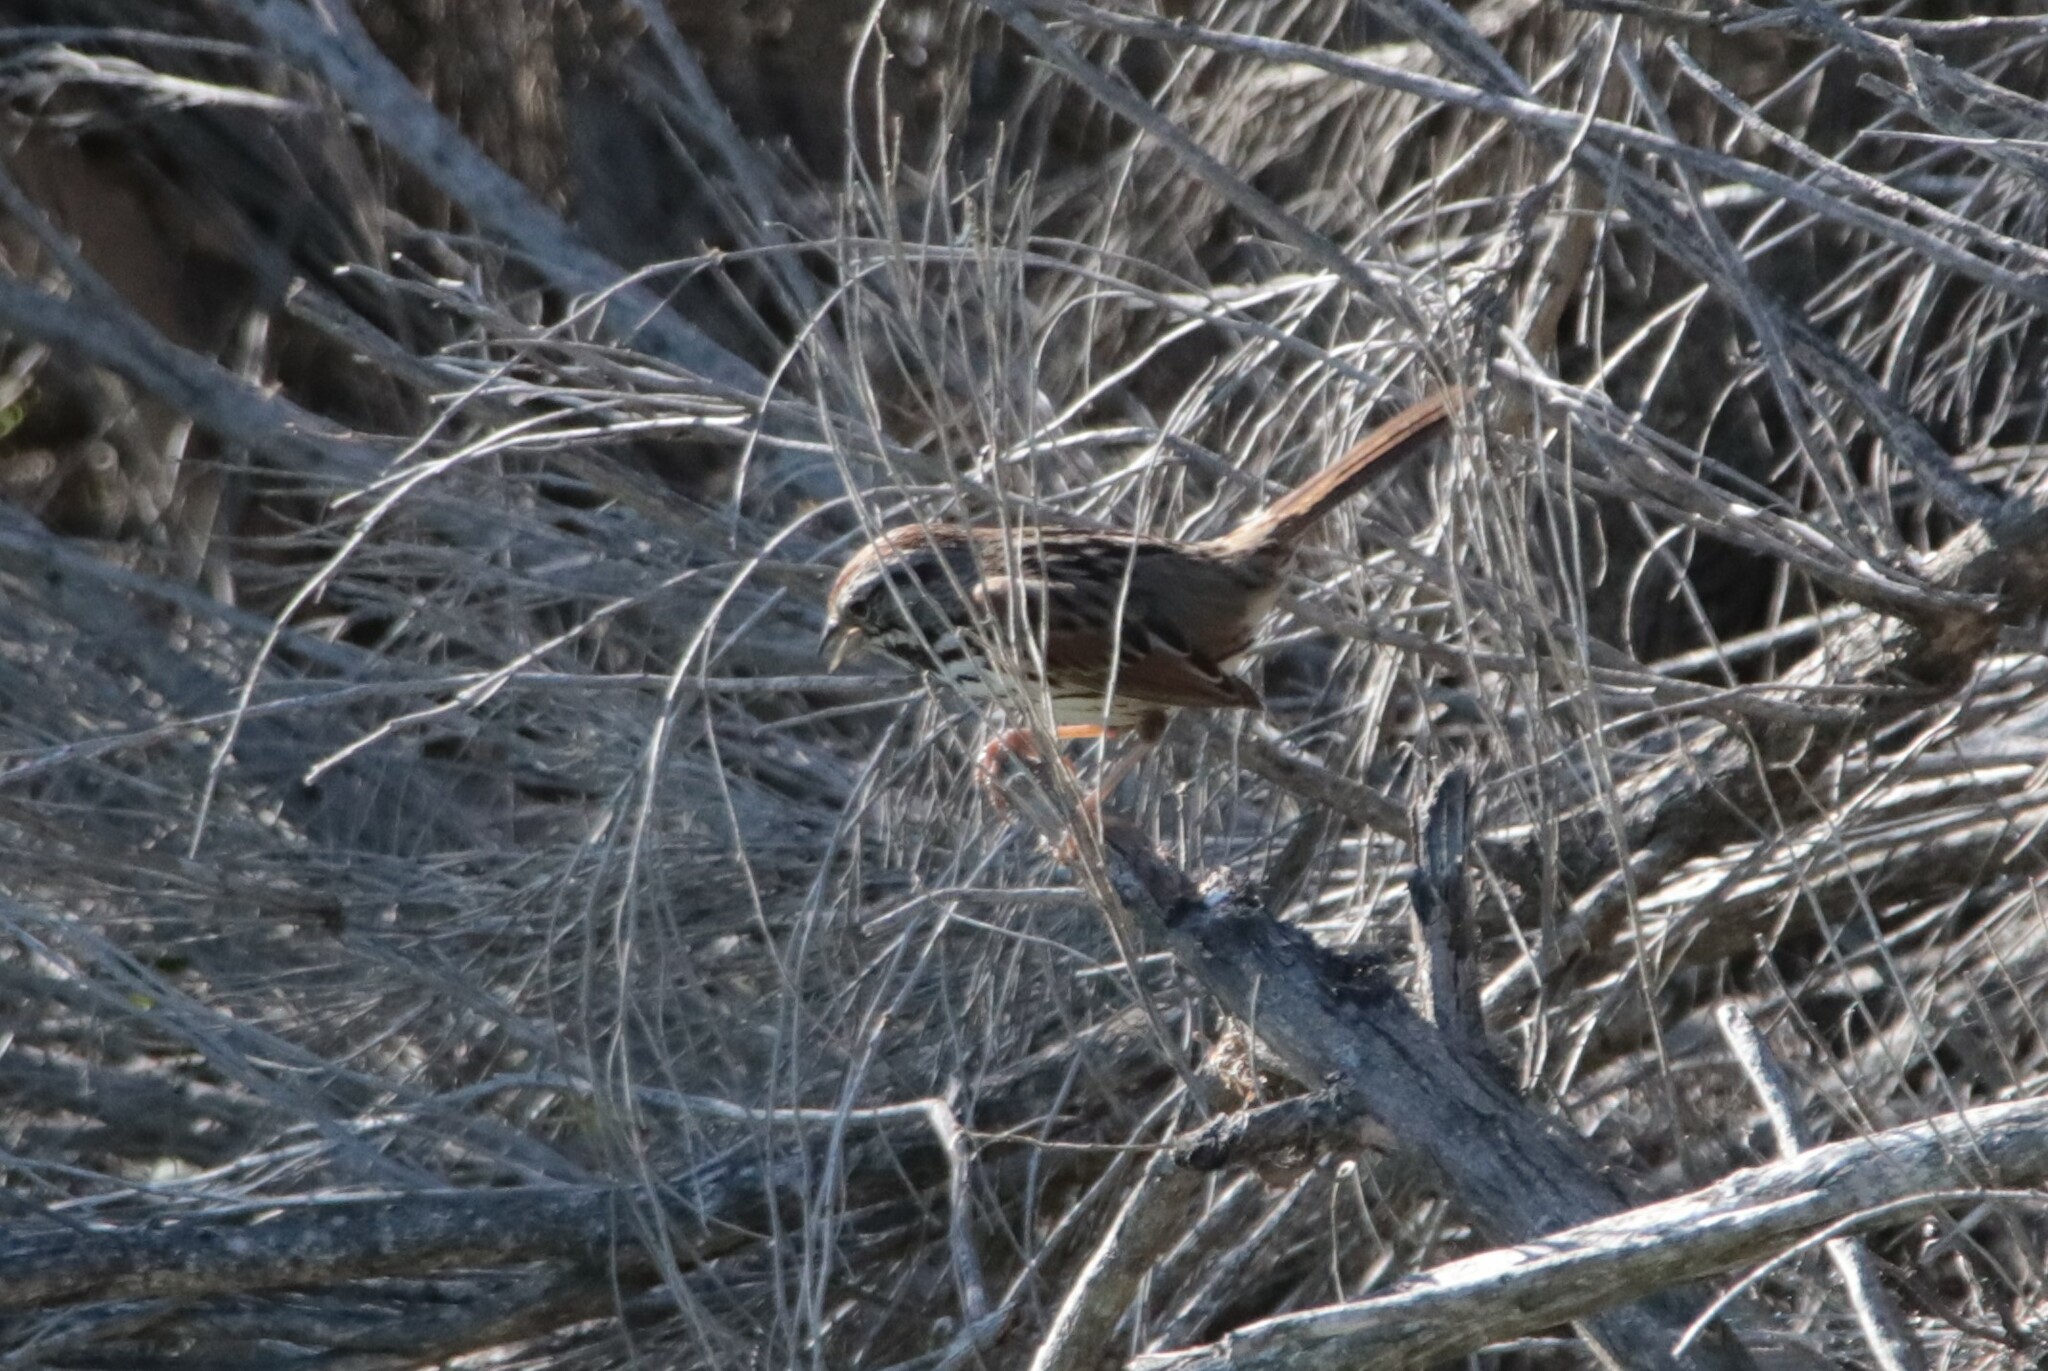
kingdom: Animalia
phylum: Chordata
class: Aves
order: Passeriformes
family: Passerellidae
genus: Melospiza
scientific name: Melospiza melodia
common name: Song sparrow
